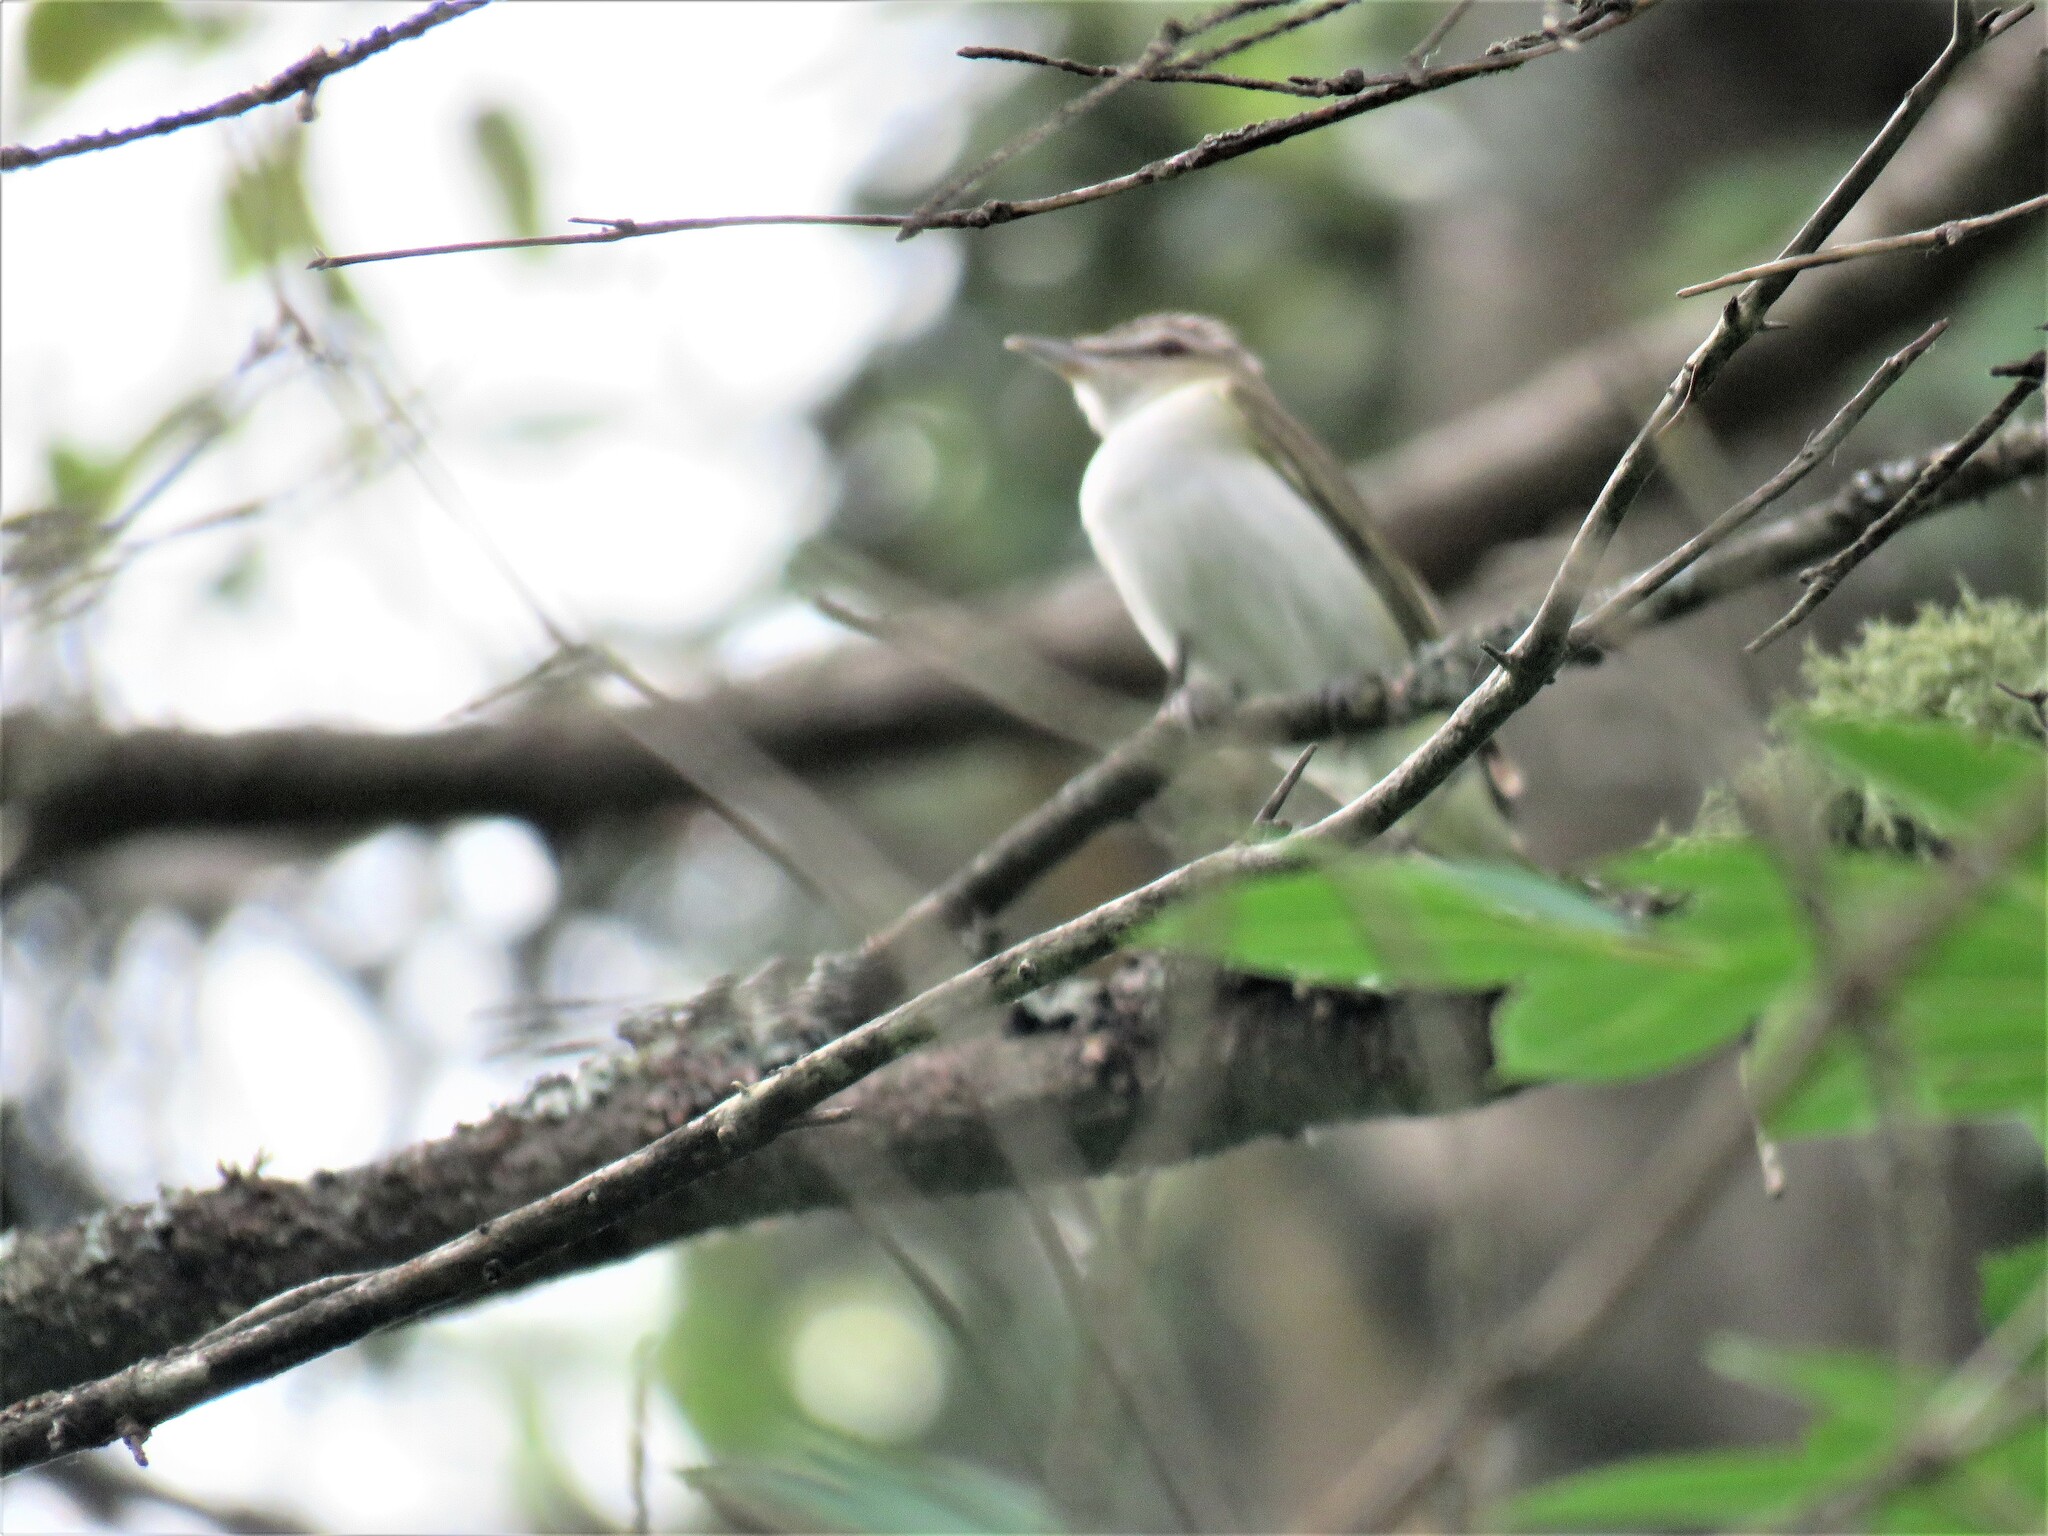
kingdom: Animalia
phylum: Chordata
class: Aves
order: Passeriformes
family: Vireonidae
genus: Vireo
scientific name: Vireo olivaceus
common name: Red-eyed vireo
